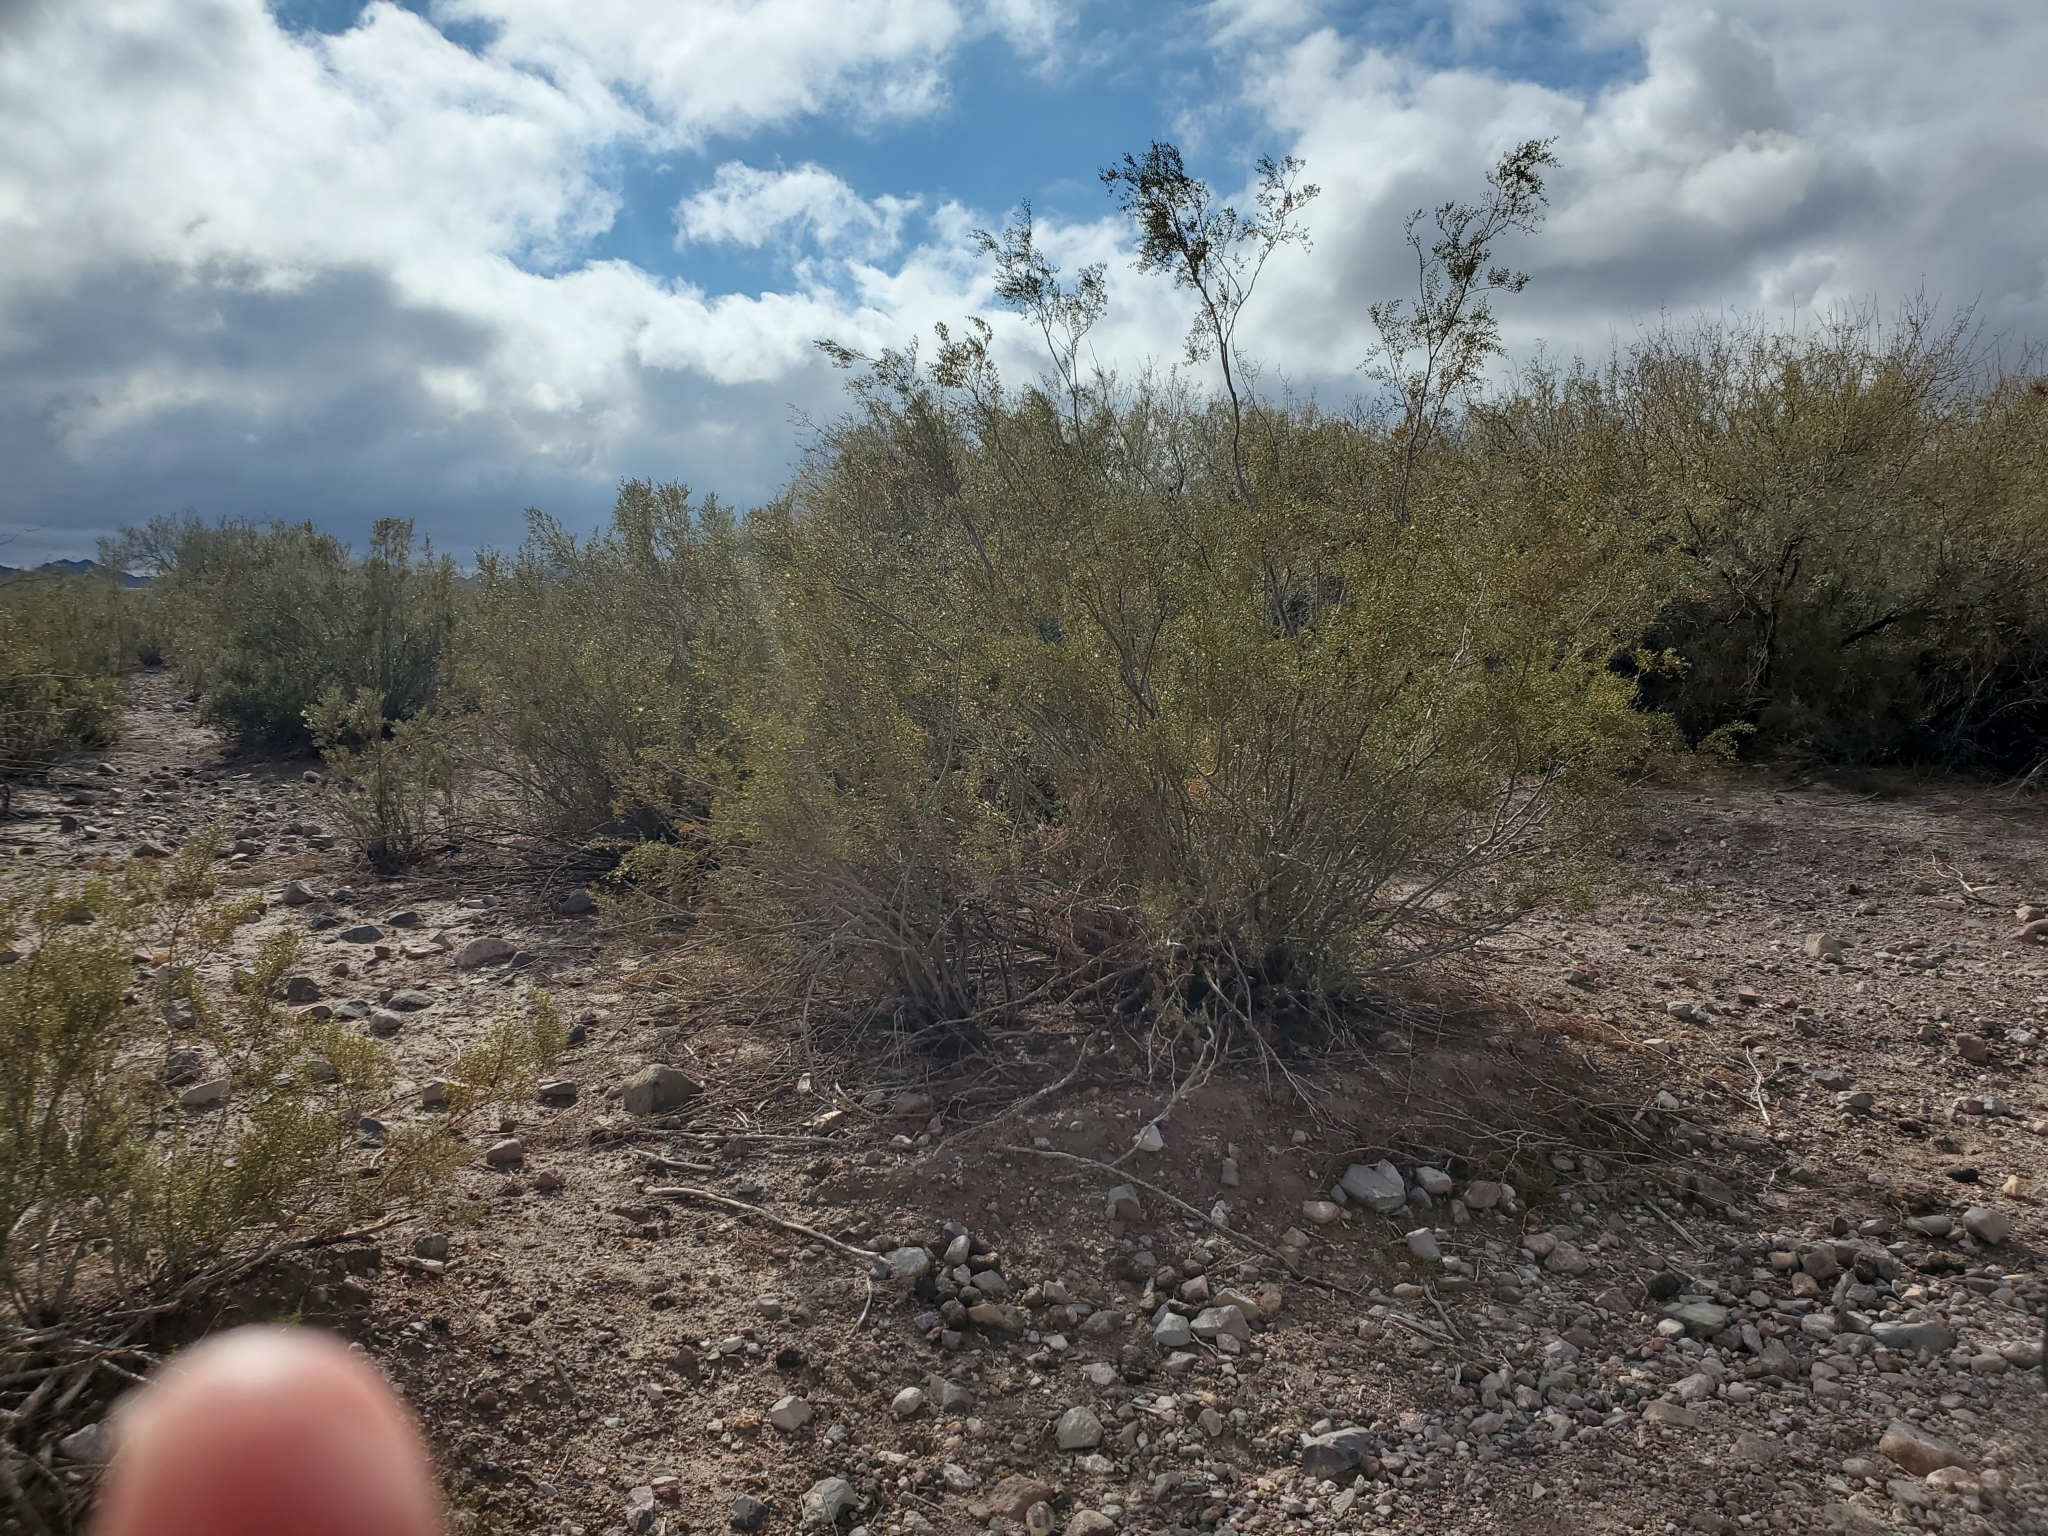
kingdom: Plantae
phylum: Tracheophyta
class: Magnoliopsida
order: Zygophyllales
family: Zygophyllaceae
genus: Larrea
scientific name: Larrea tridentata
